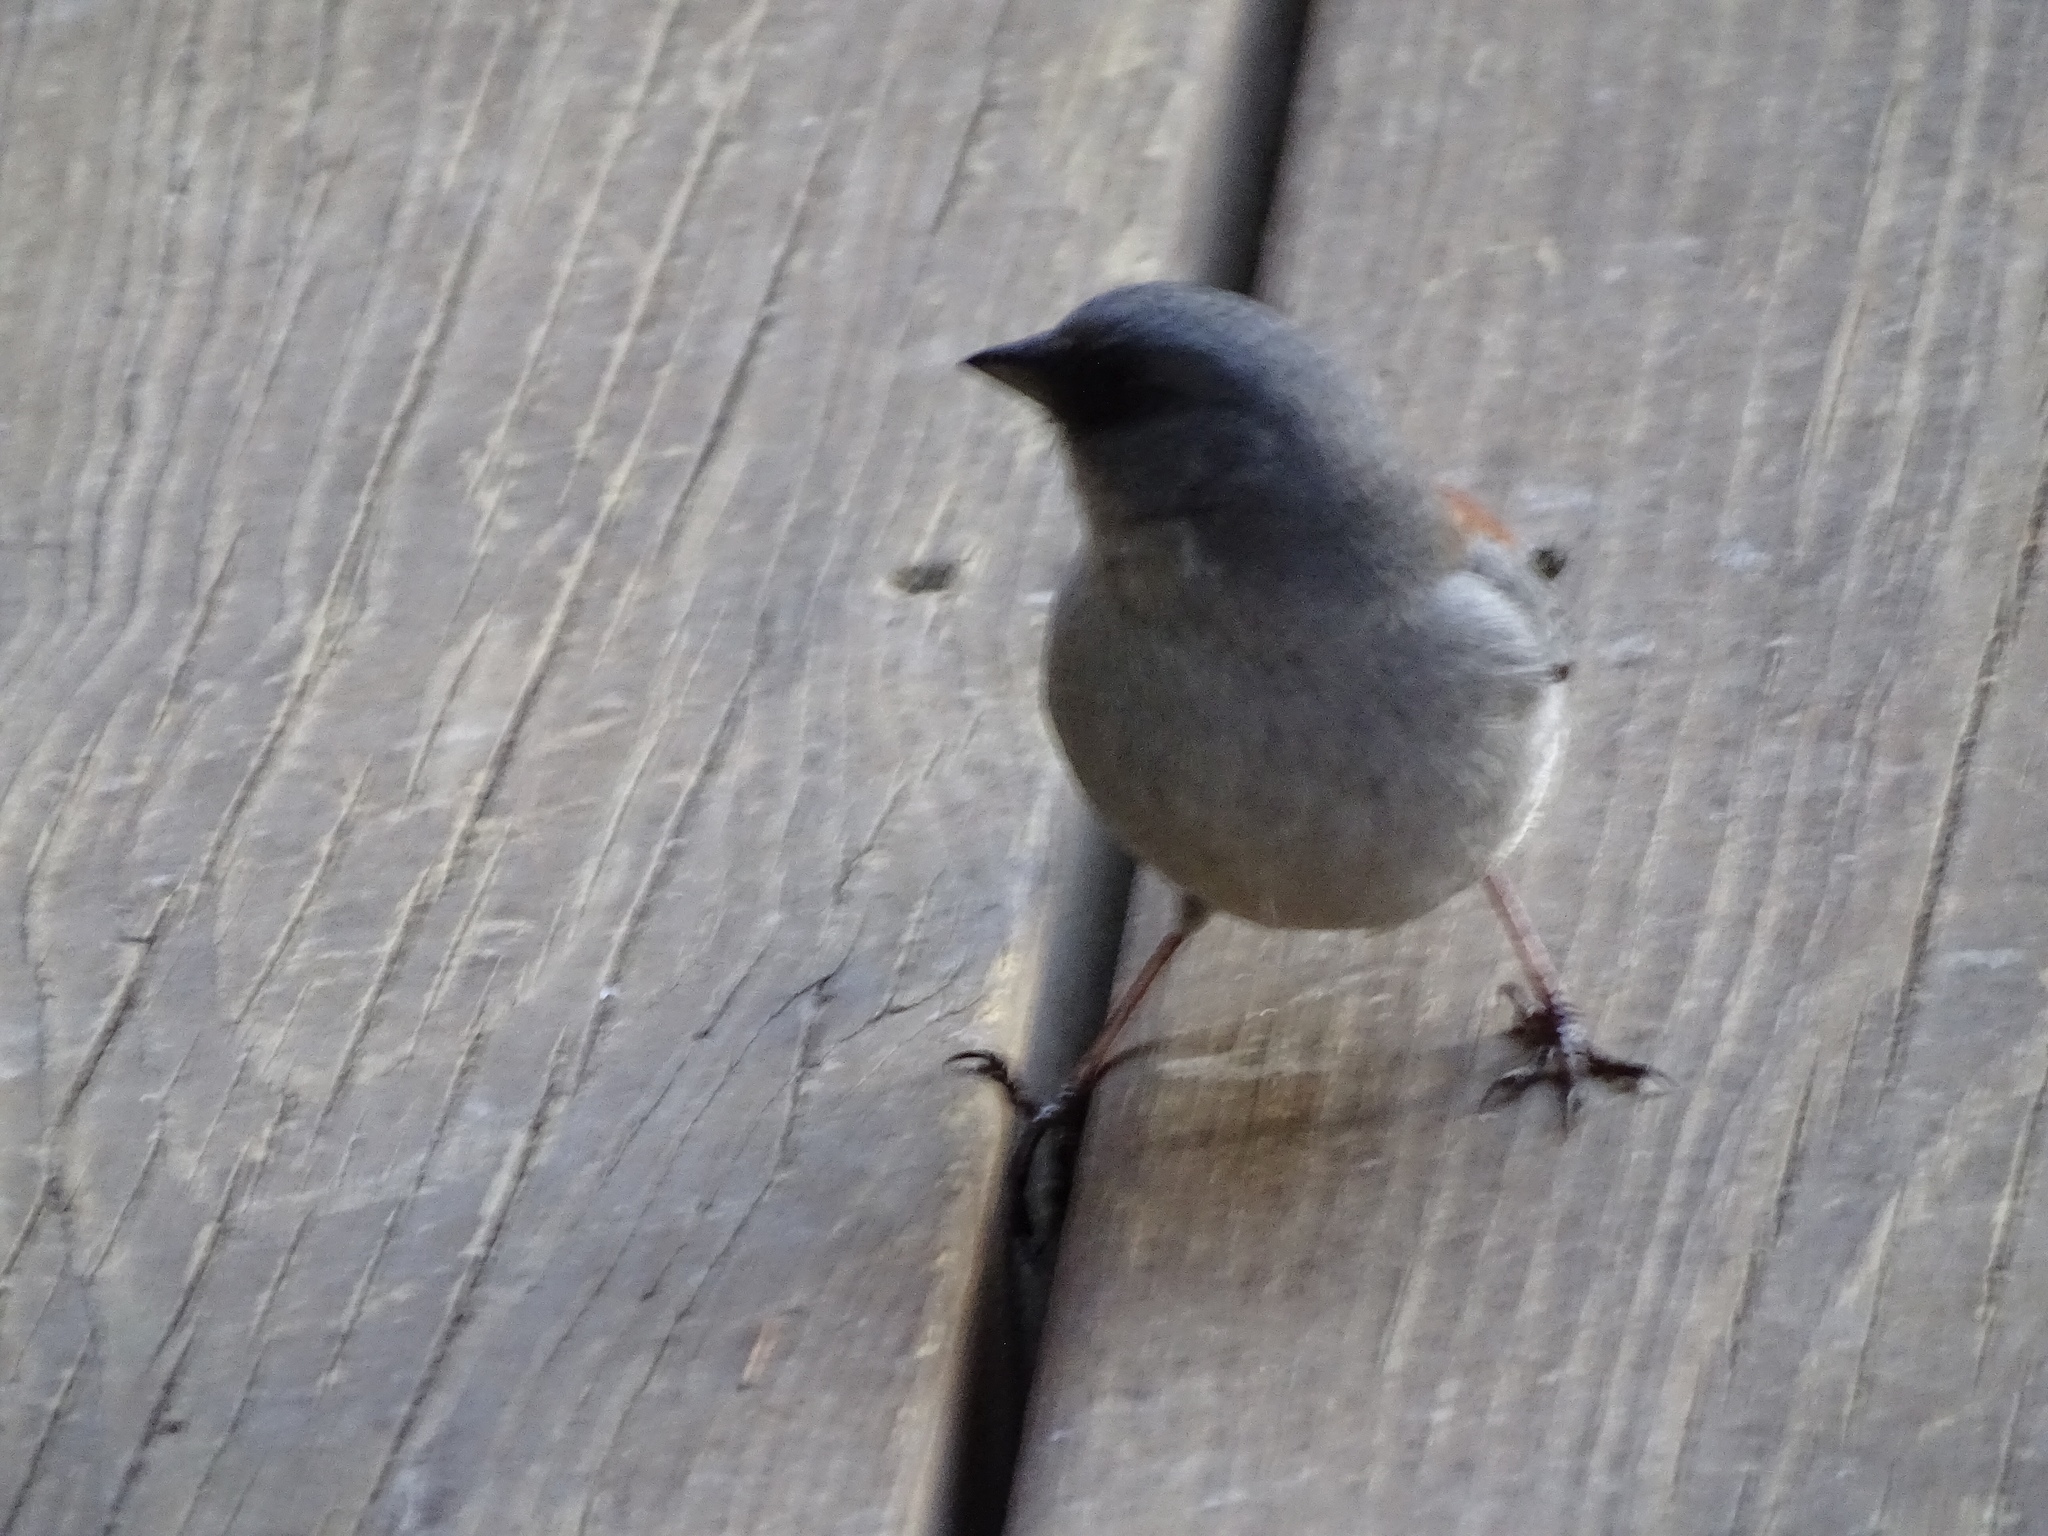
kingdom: Animalia
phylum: Chordata
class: Aves
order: Passeriformes
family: Passerellidae
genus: Junco
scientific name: Junco hyemalis
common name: Dark-eyed junco
